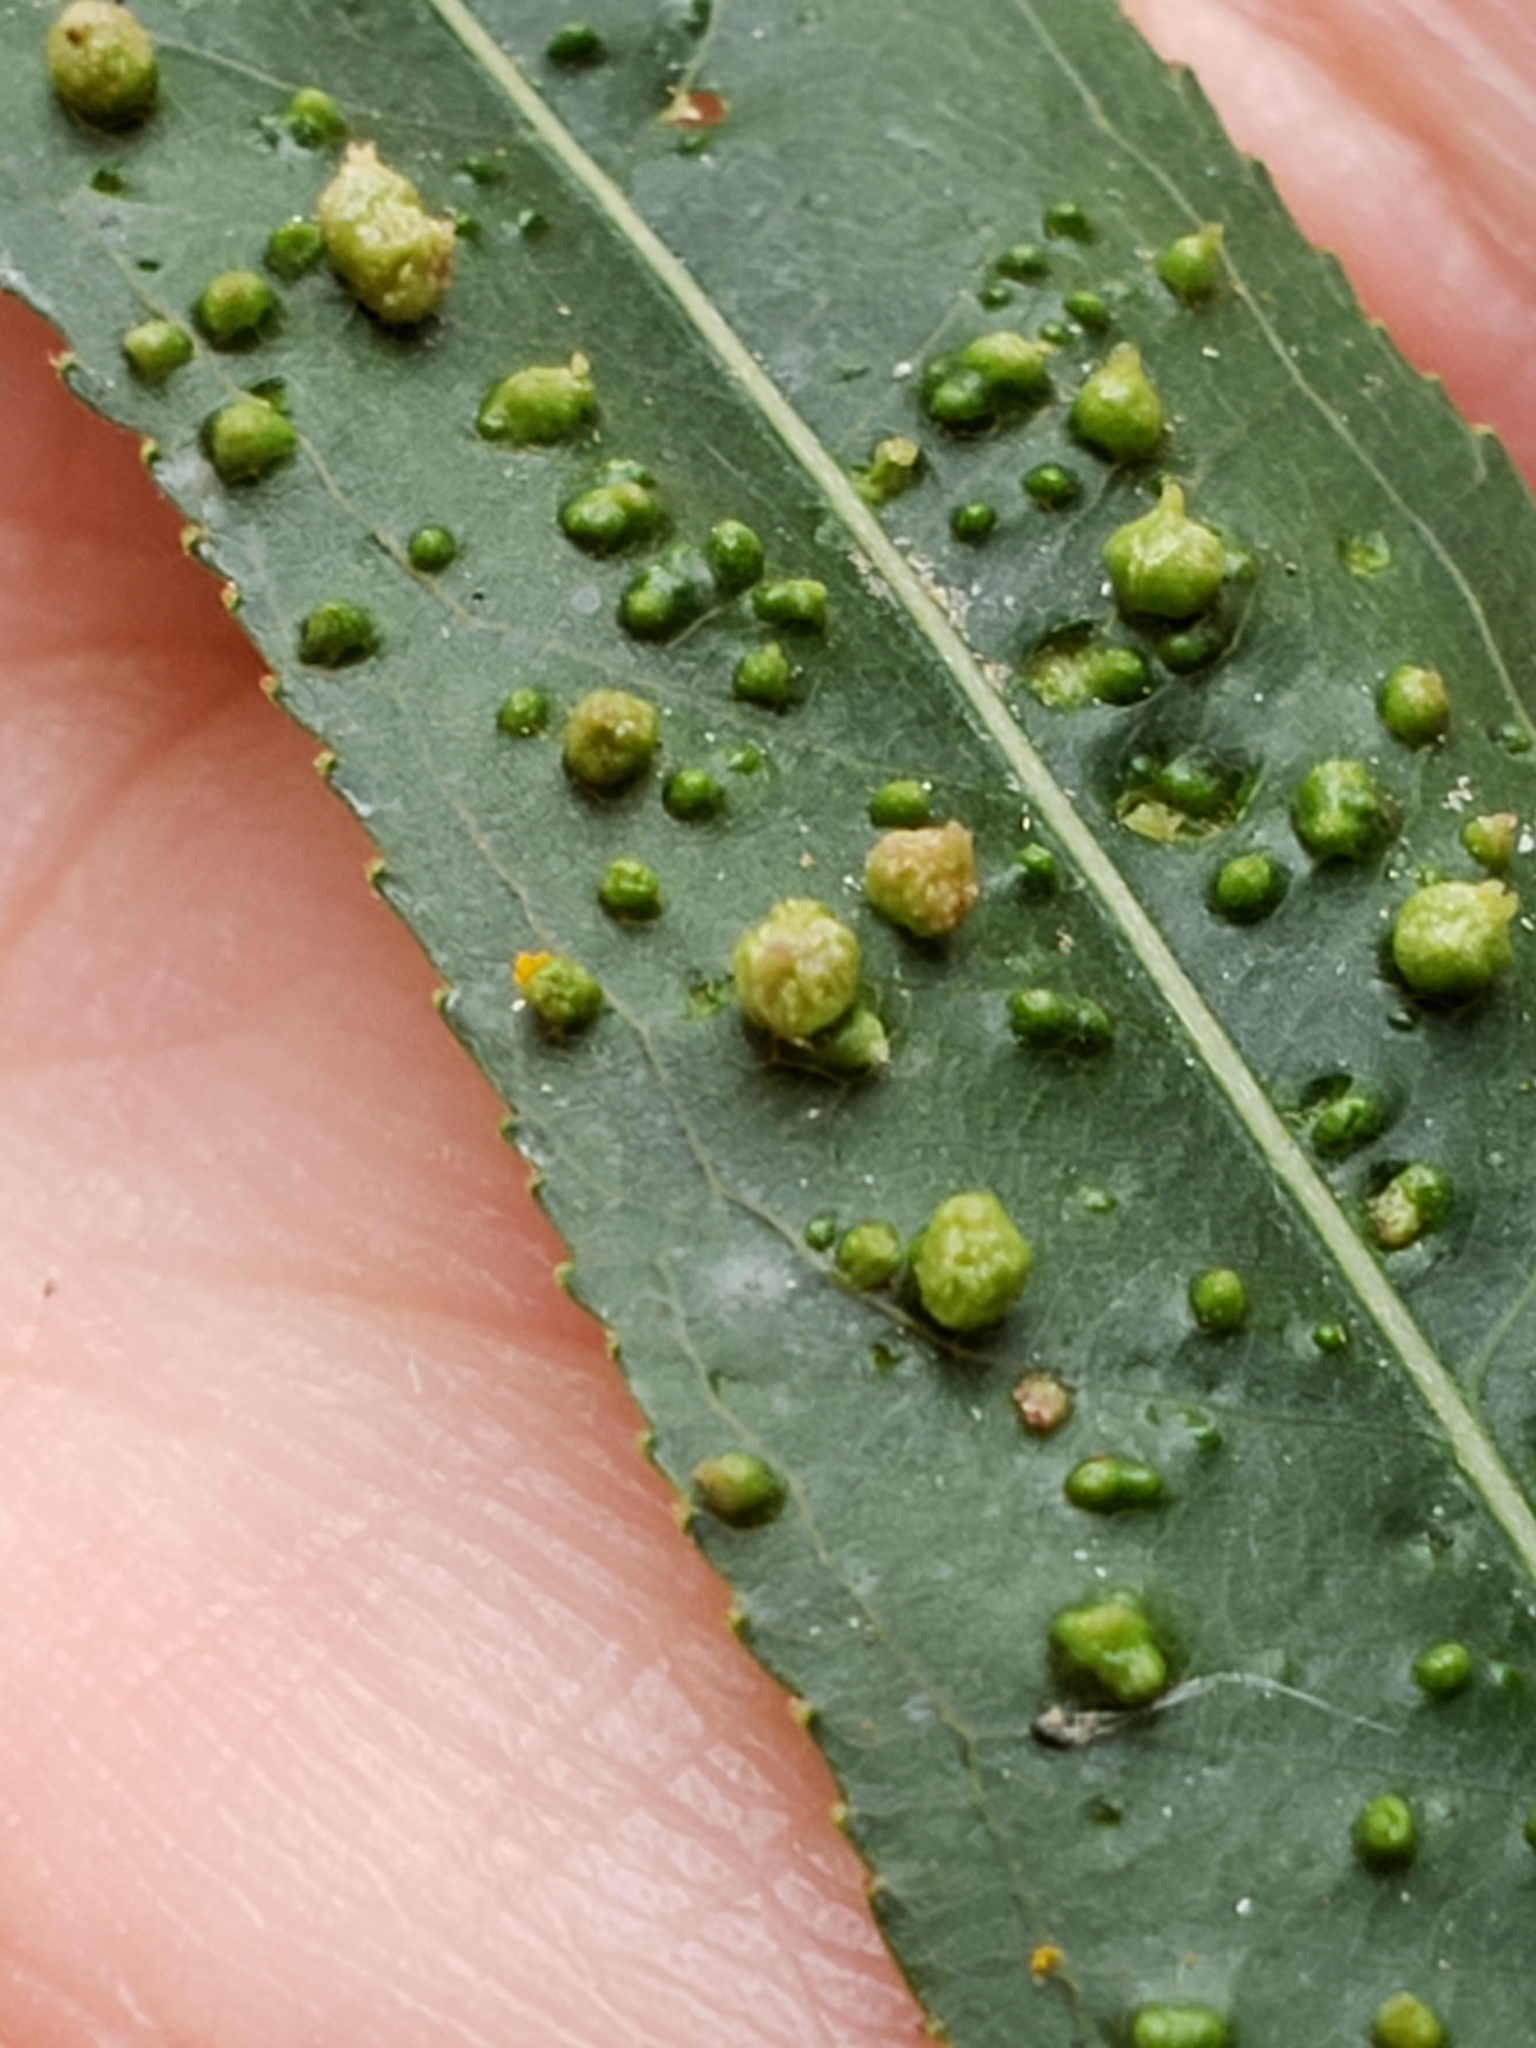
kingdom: Animalia
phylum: Arthropoda
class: Arachnida
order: Trombidiformes
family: Eriophyidae
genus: Aculus
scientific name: Aculus tetanothrix
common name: Willow bead gall mite
